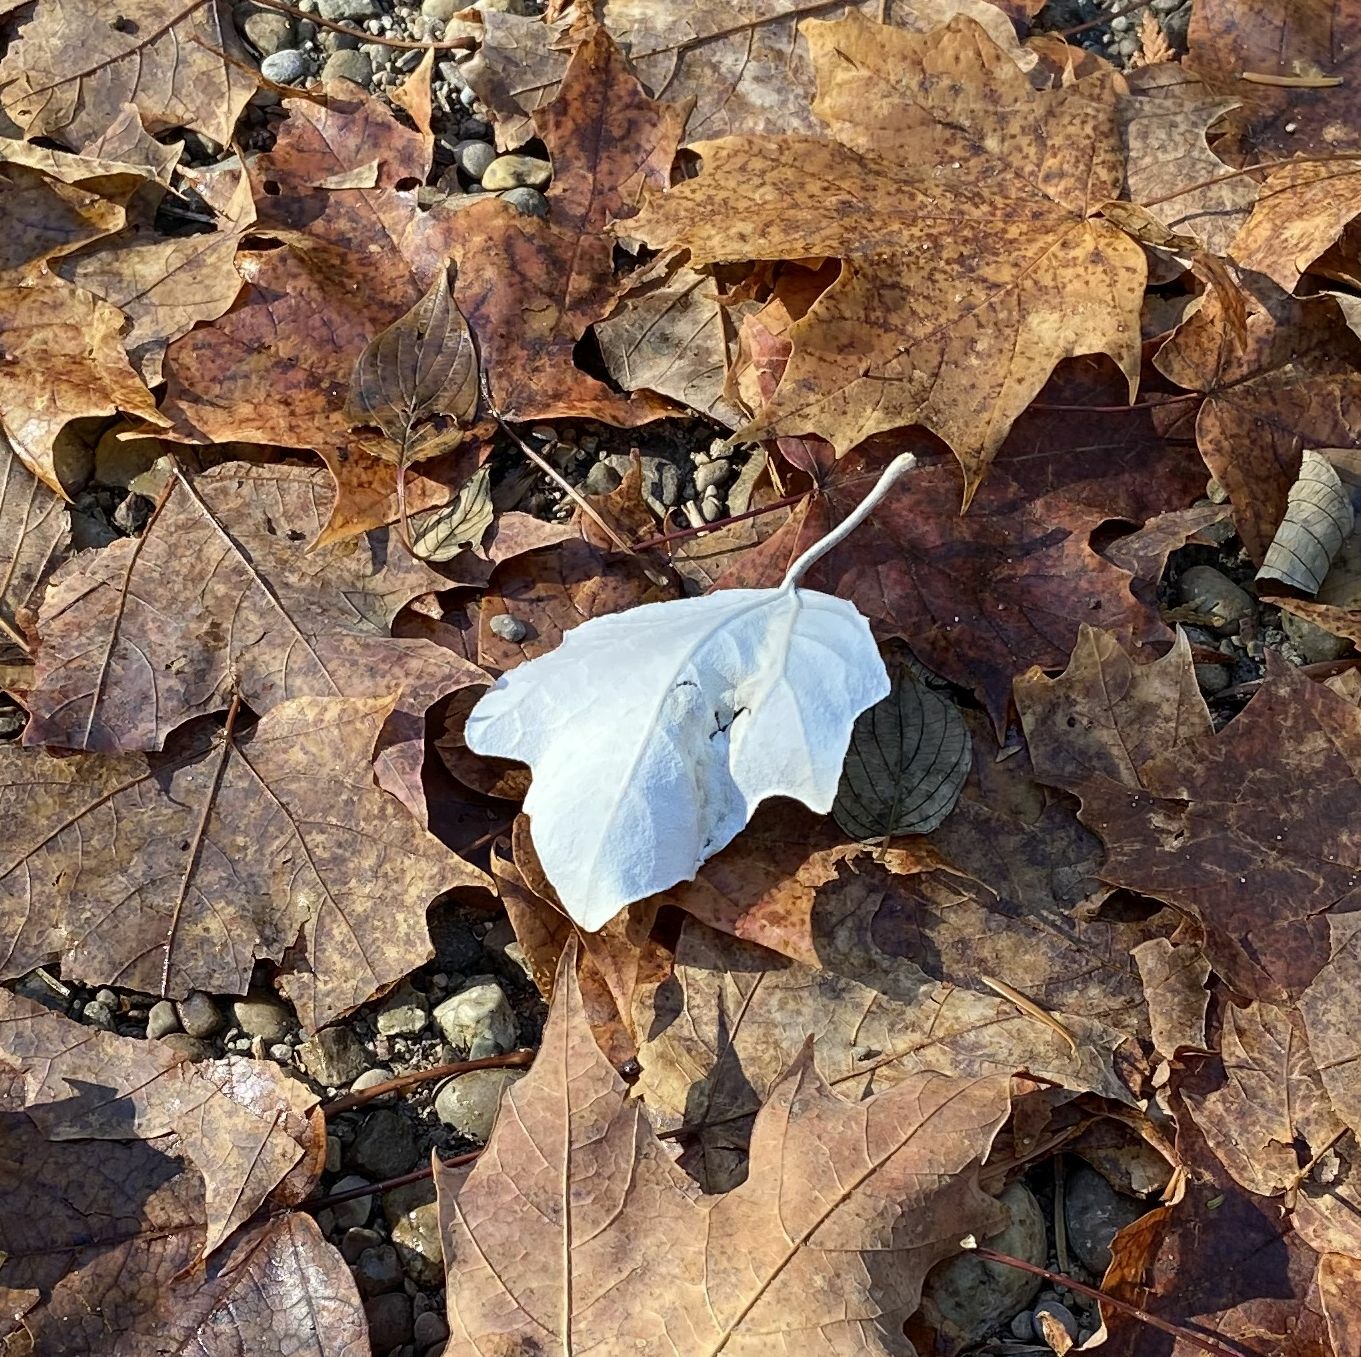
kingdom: Plantae
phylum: Tracheophyta
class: Magnoliopsida
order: Malpighiales
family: Salicaceae
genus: Populus
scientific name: Populus alba
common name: White poplar
